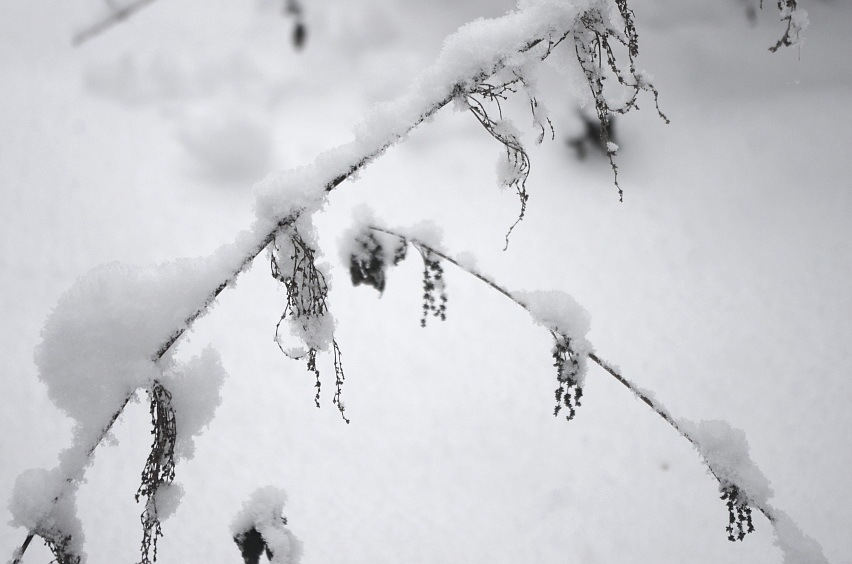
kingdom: Plantae
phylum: Tracheophyta
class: Magnoliopsida
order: Rosales
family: Urticaceae
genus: Urtica
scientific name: Urtica dioica
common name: Common nettle
